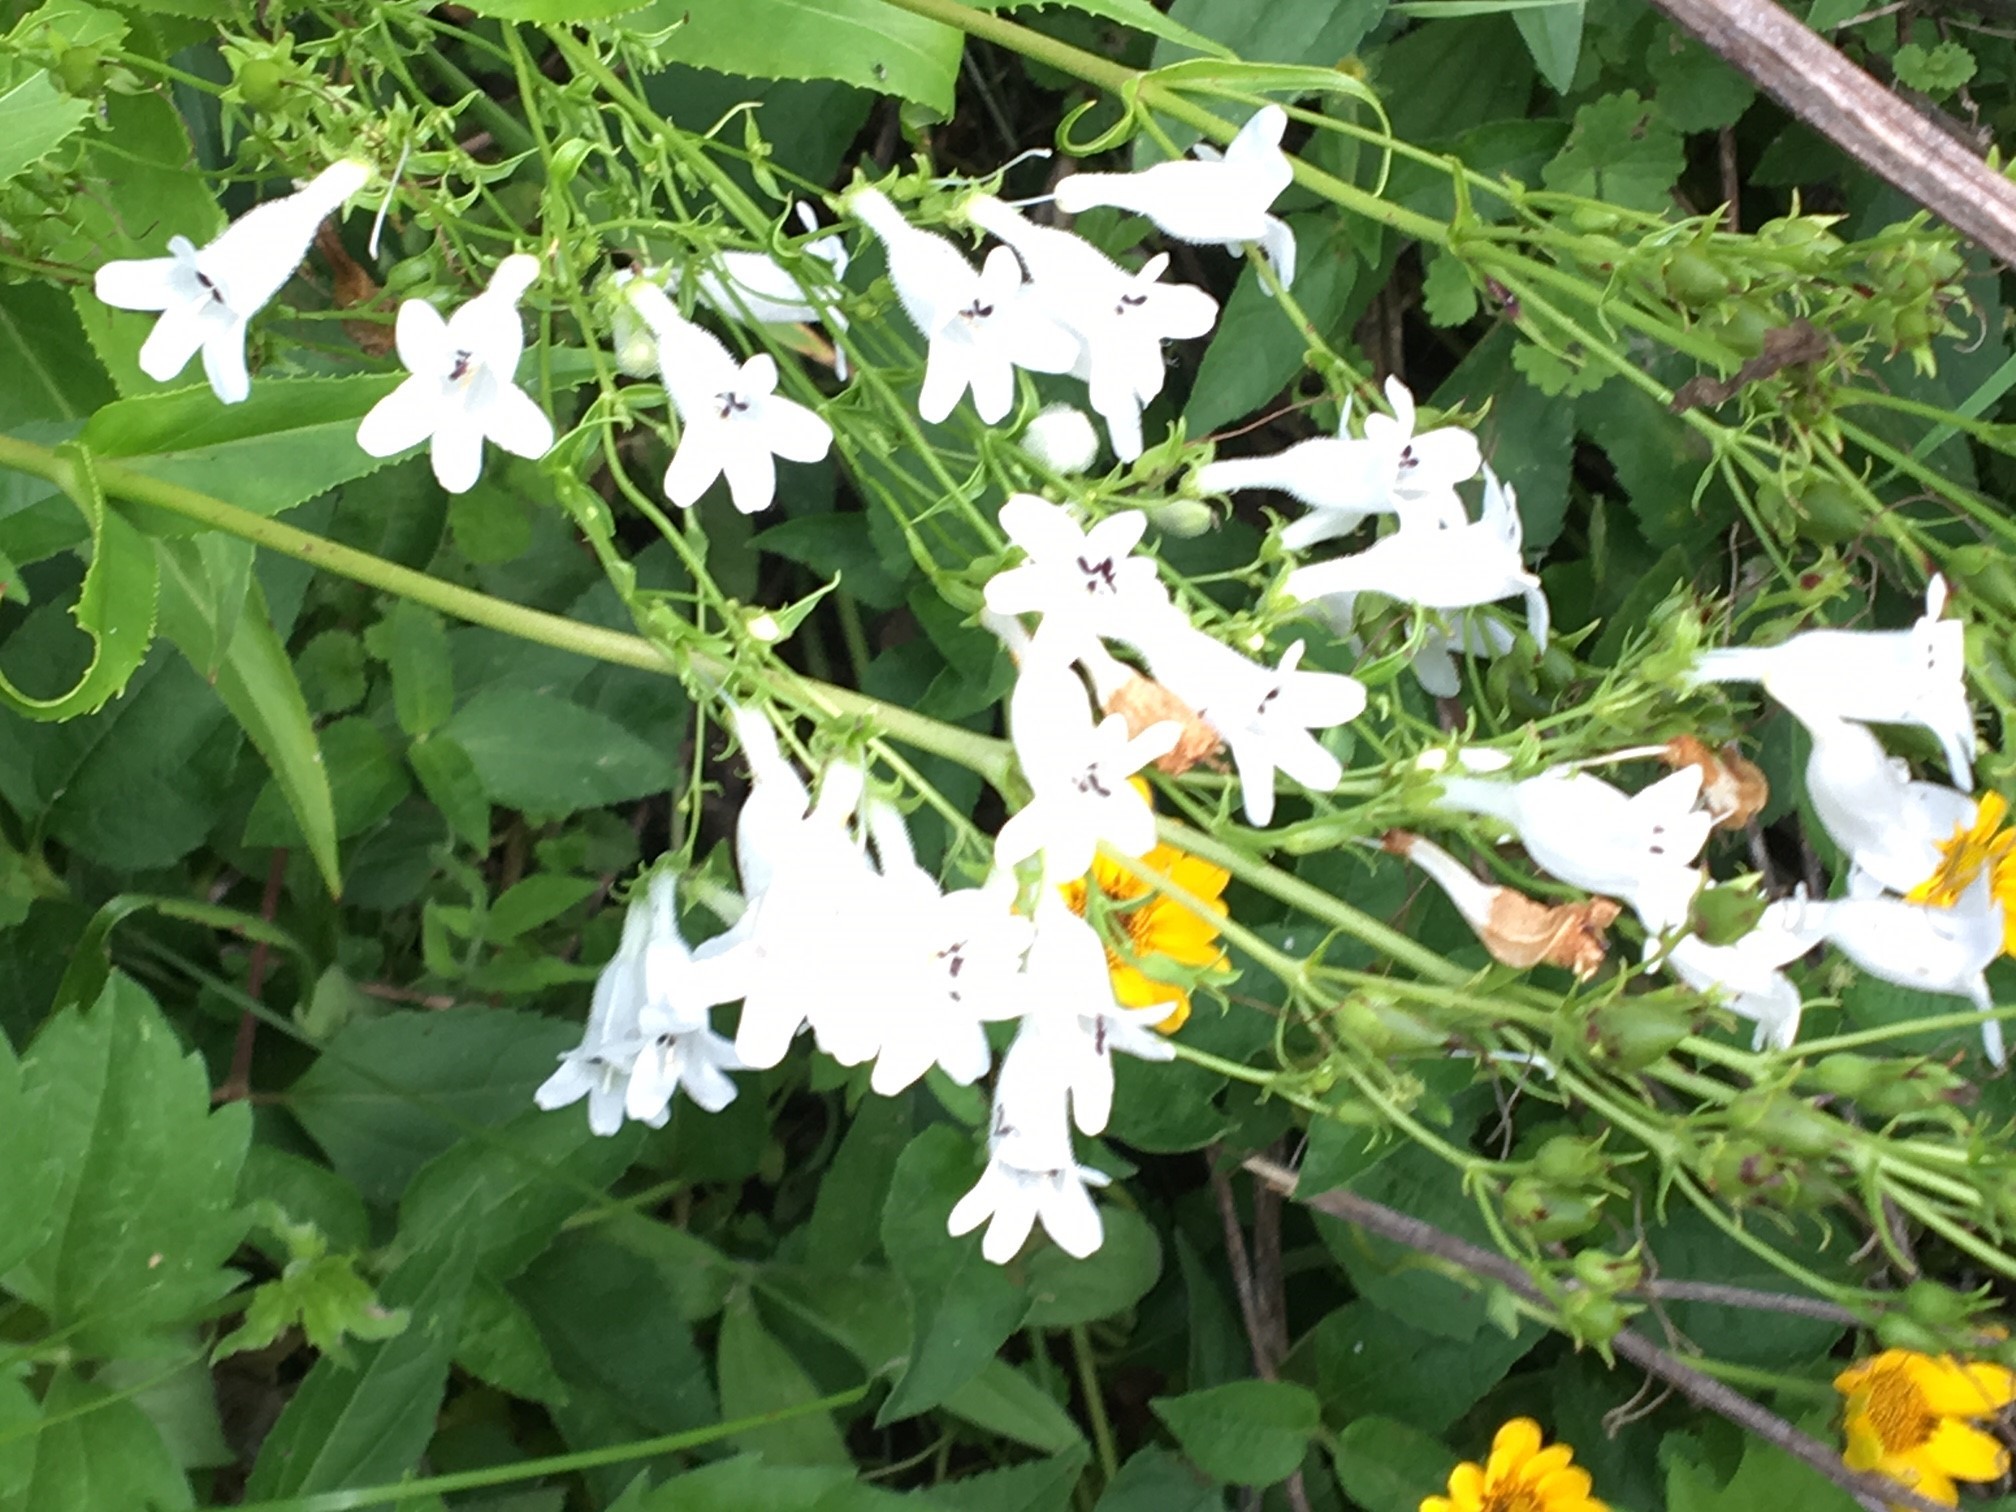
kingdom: Plantae
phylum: Tracheophyta
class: Magnoliopsida
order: Lamiales
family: Plantaginaceae
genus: Penstemon
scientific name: Penstemon digitalis
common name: Foxglove beardtongue
